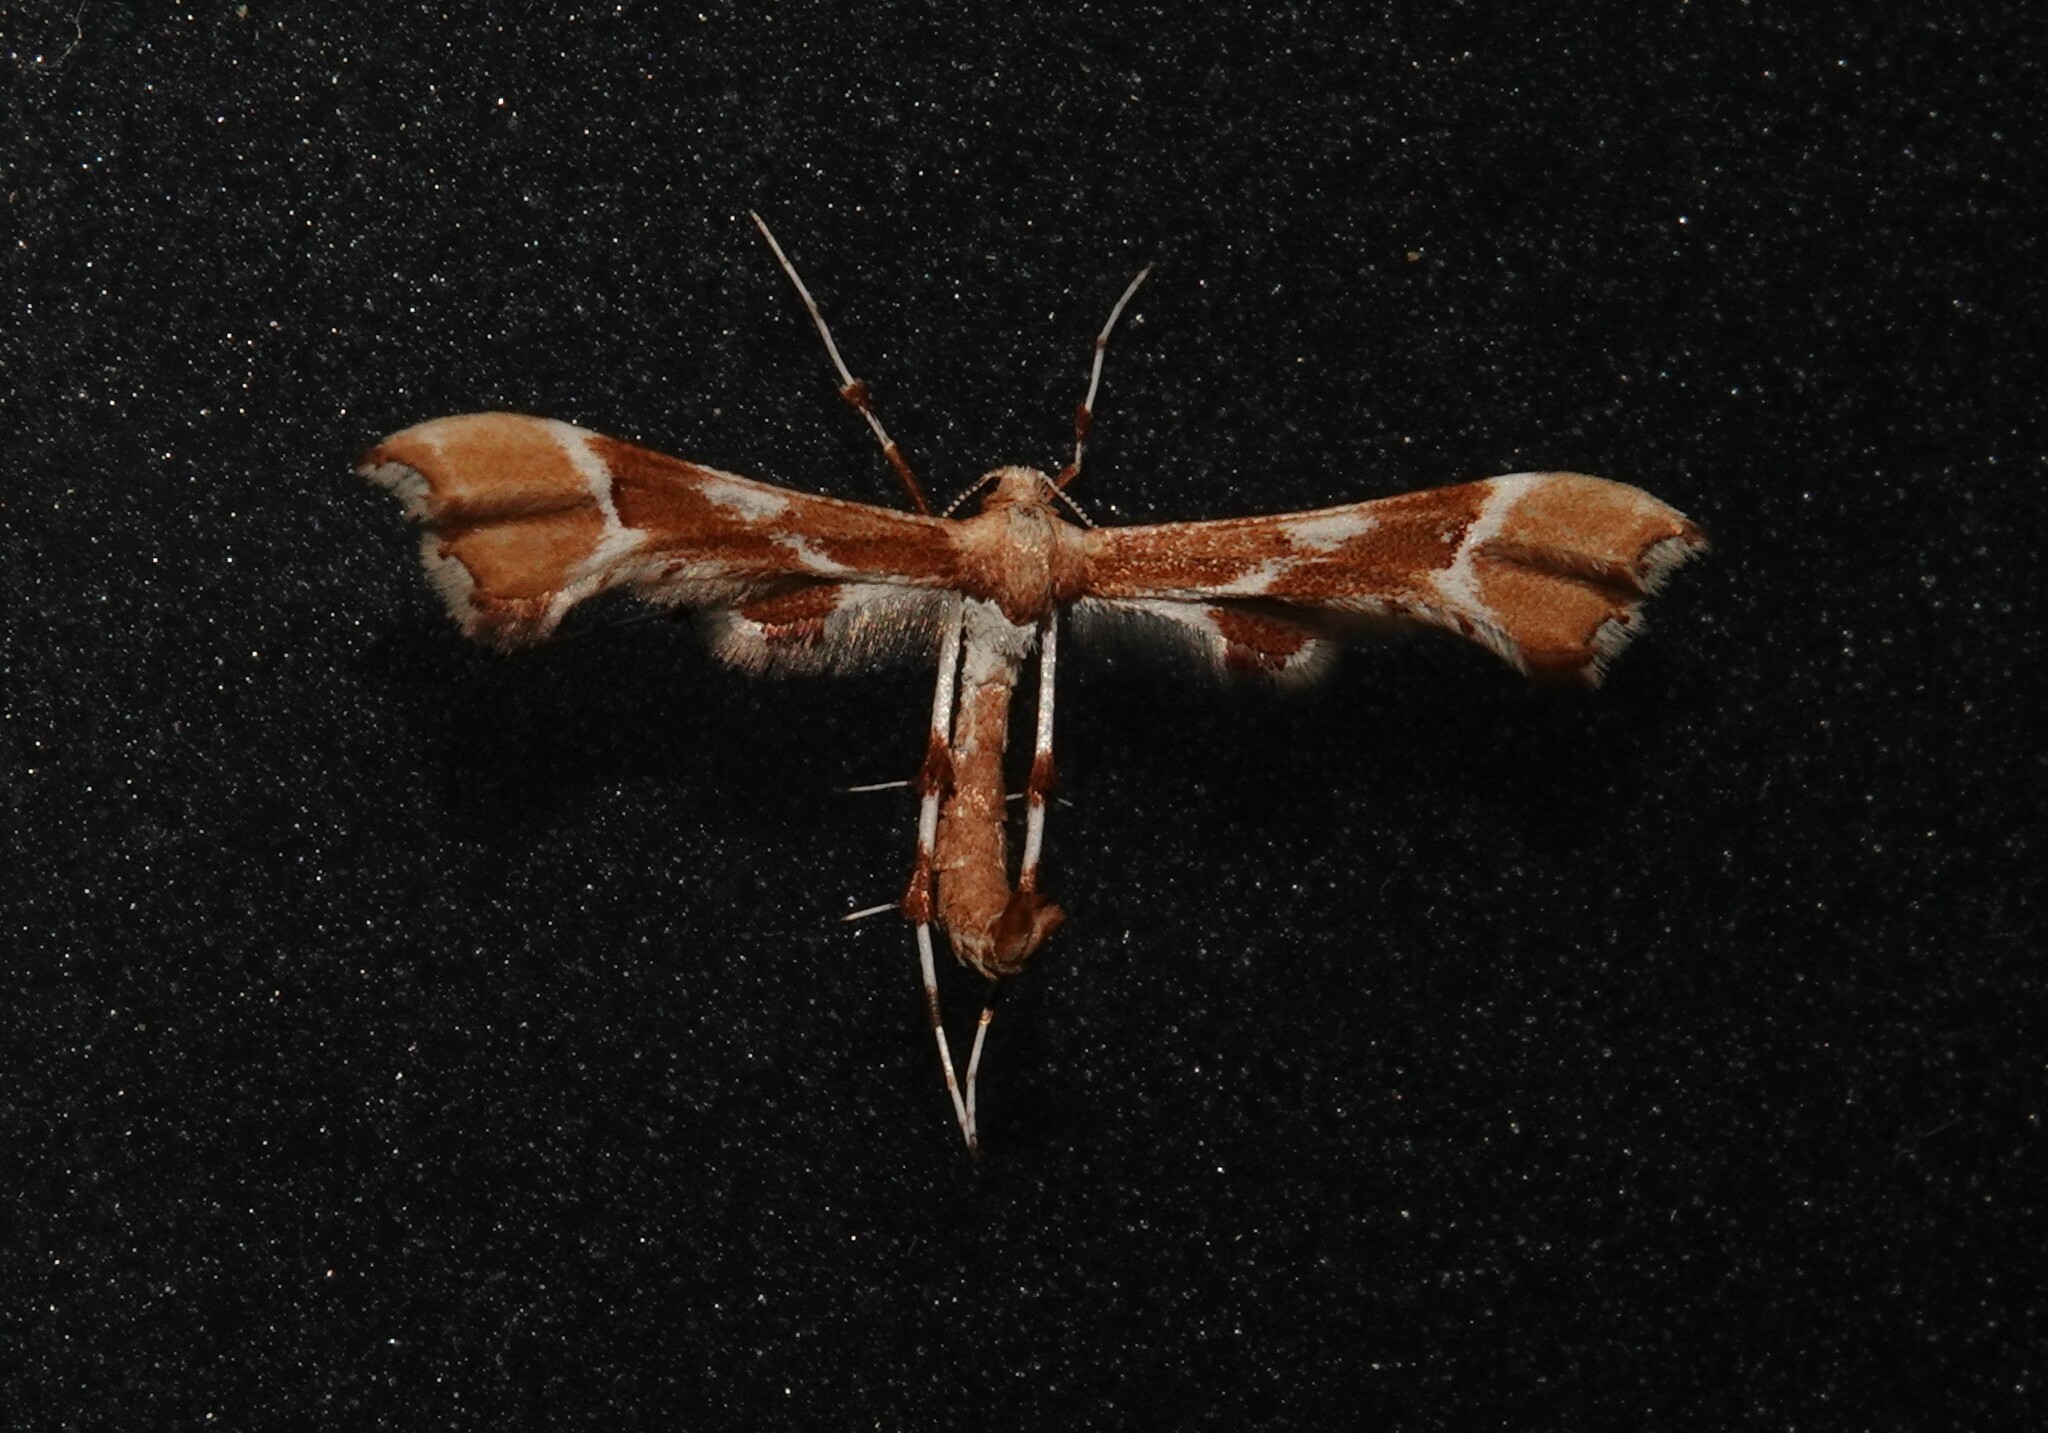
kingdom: Animalia
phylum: Arthropoda
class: Insecta
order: Lepidoptera
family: Pterophoridae
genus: Cnaemidophorus
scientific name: Cnaemidophorus rhododactyla
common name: Rose plume
